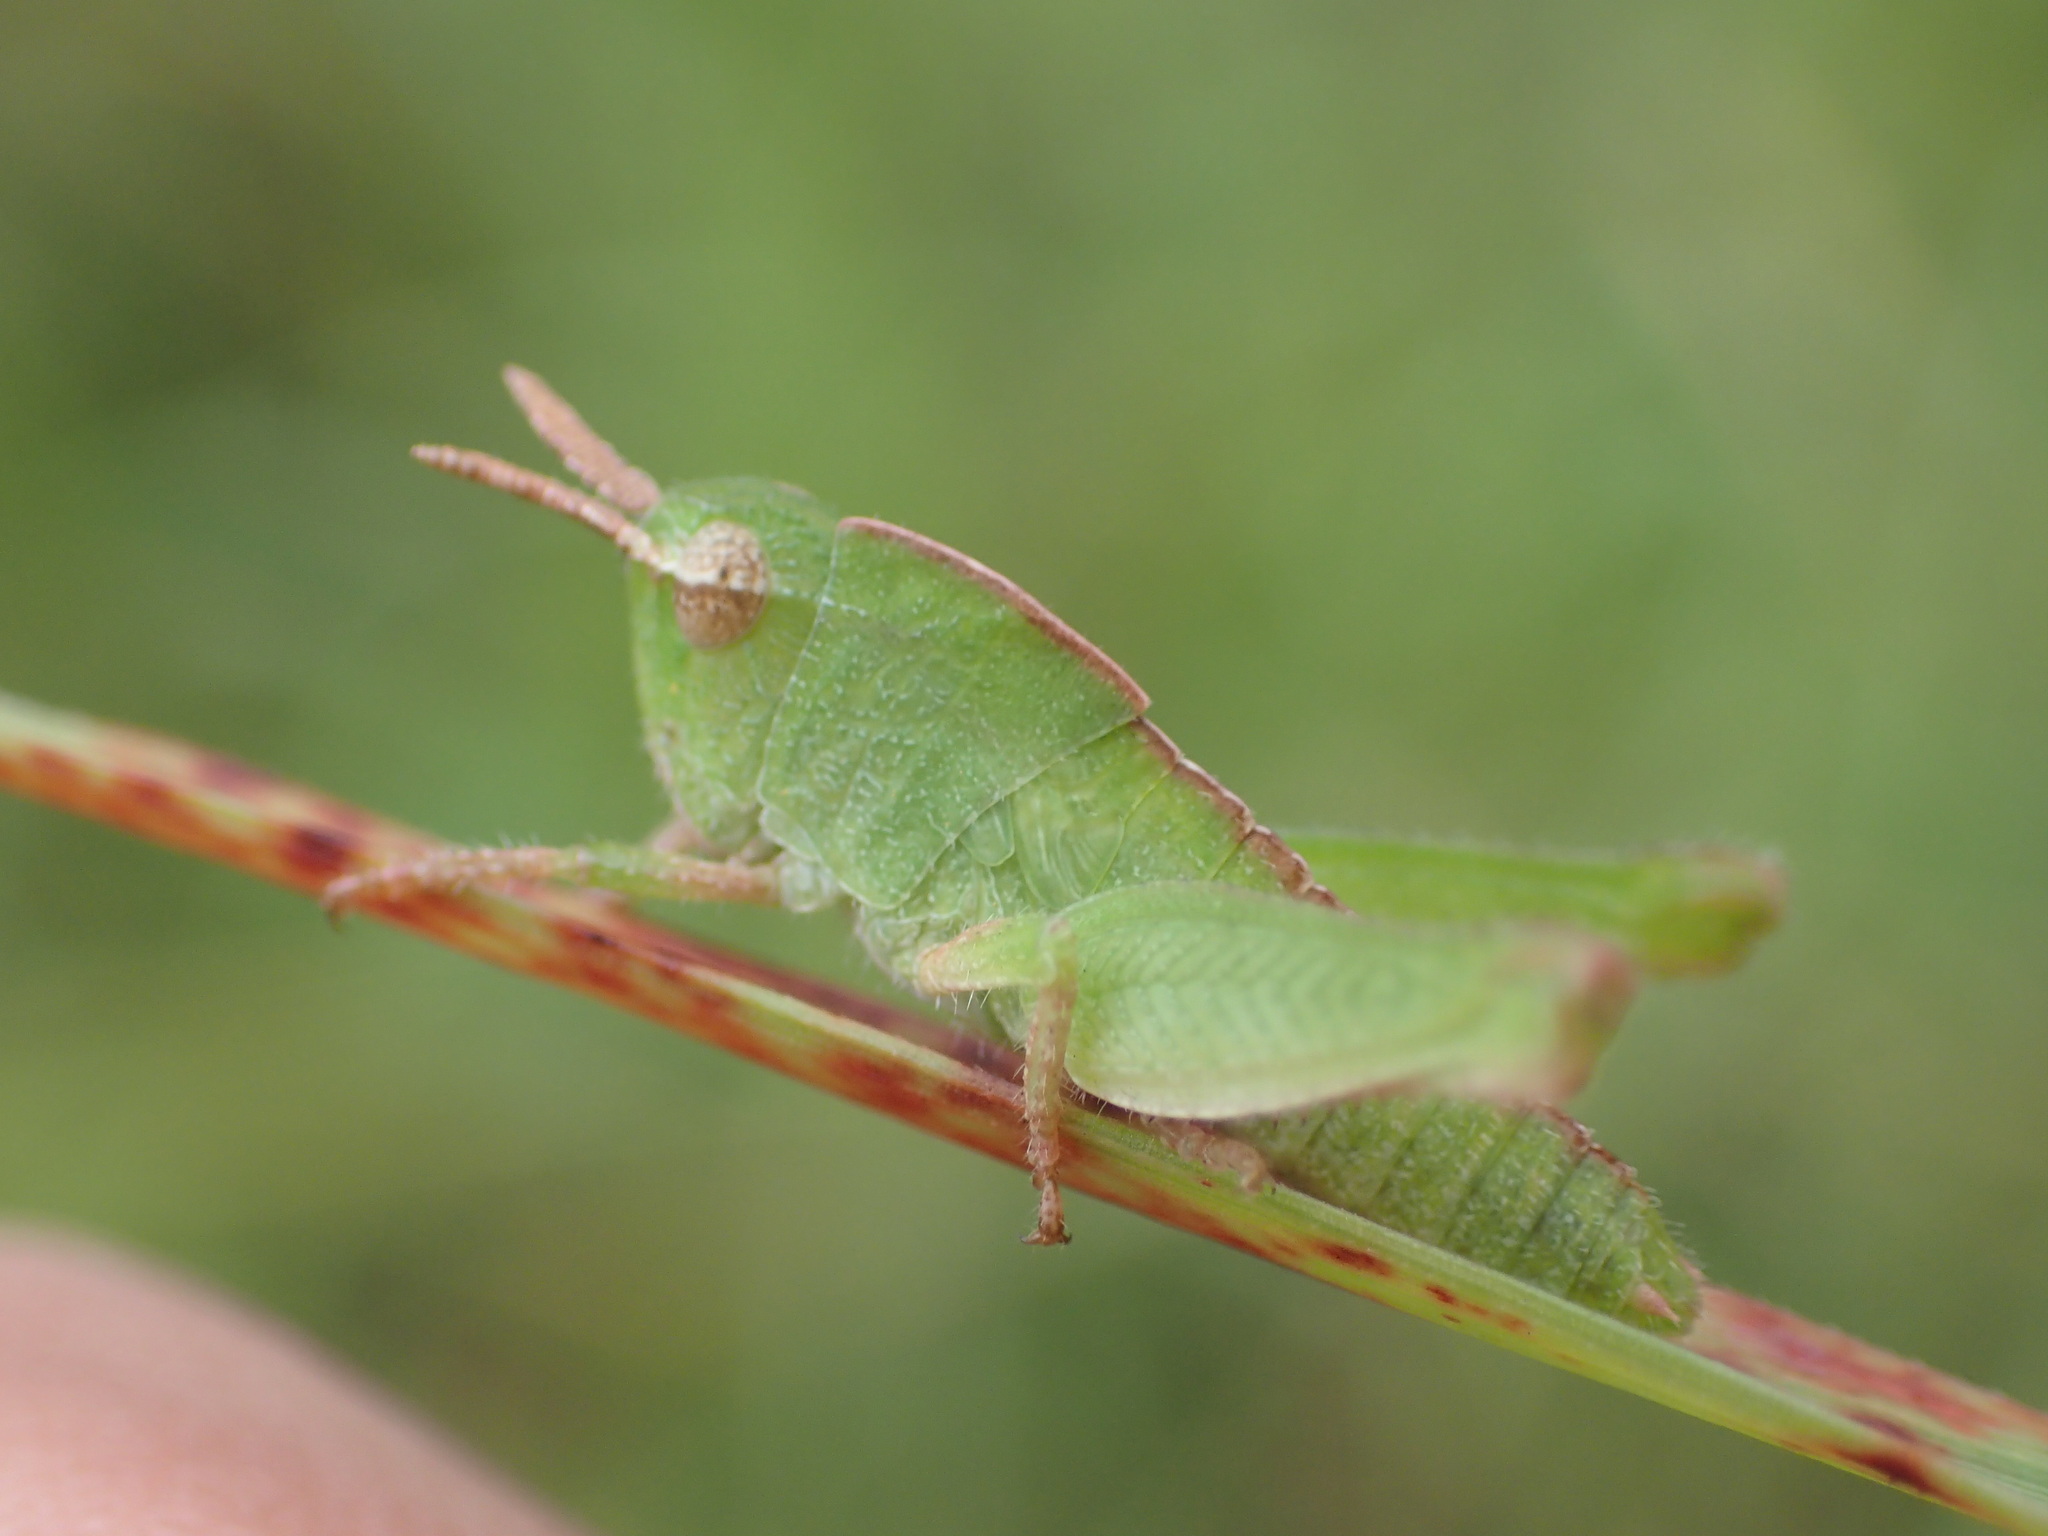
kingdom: Animalia
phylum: Arthropoda
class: Insecta
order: Orthoptera
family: Acrididae
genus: Chortophaga
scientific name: Chortophaga viridifasciata
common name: Green-striped grasshopper
